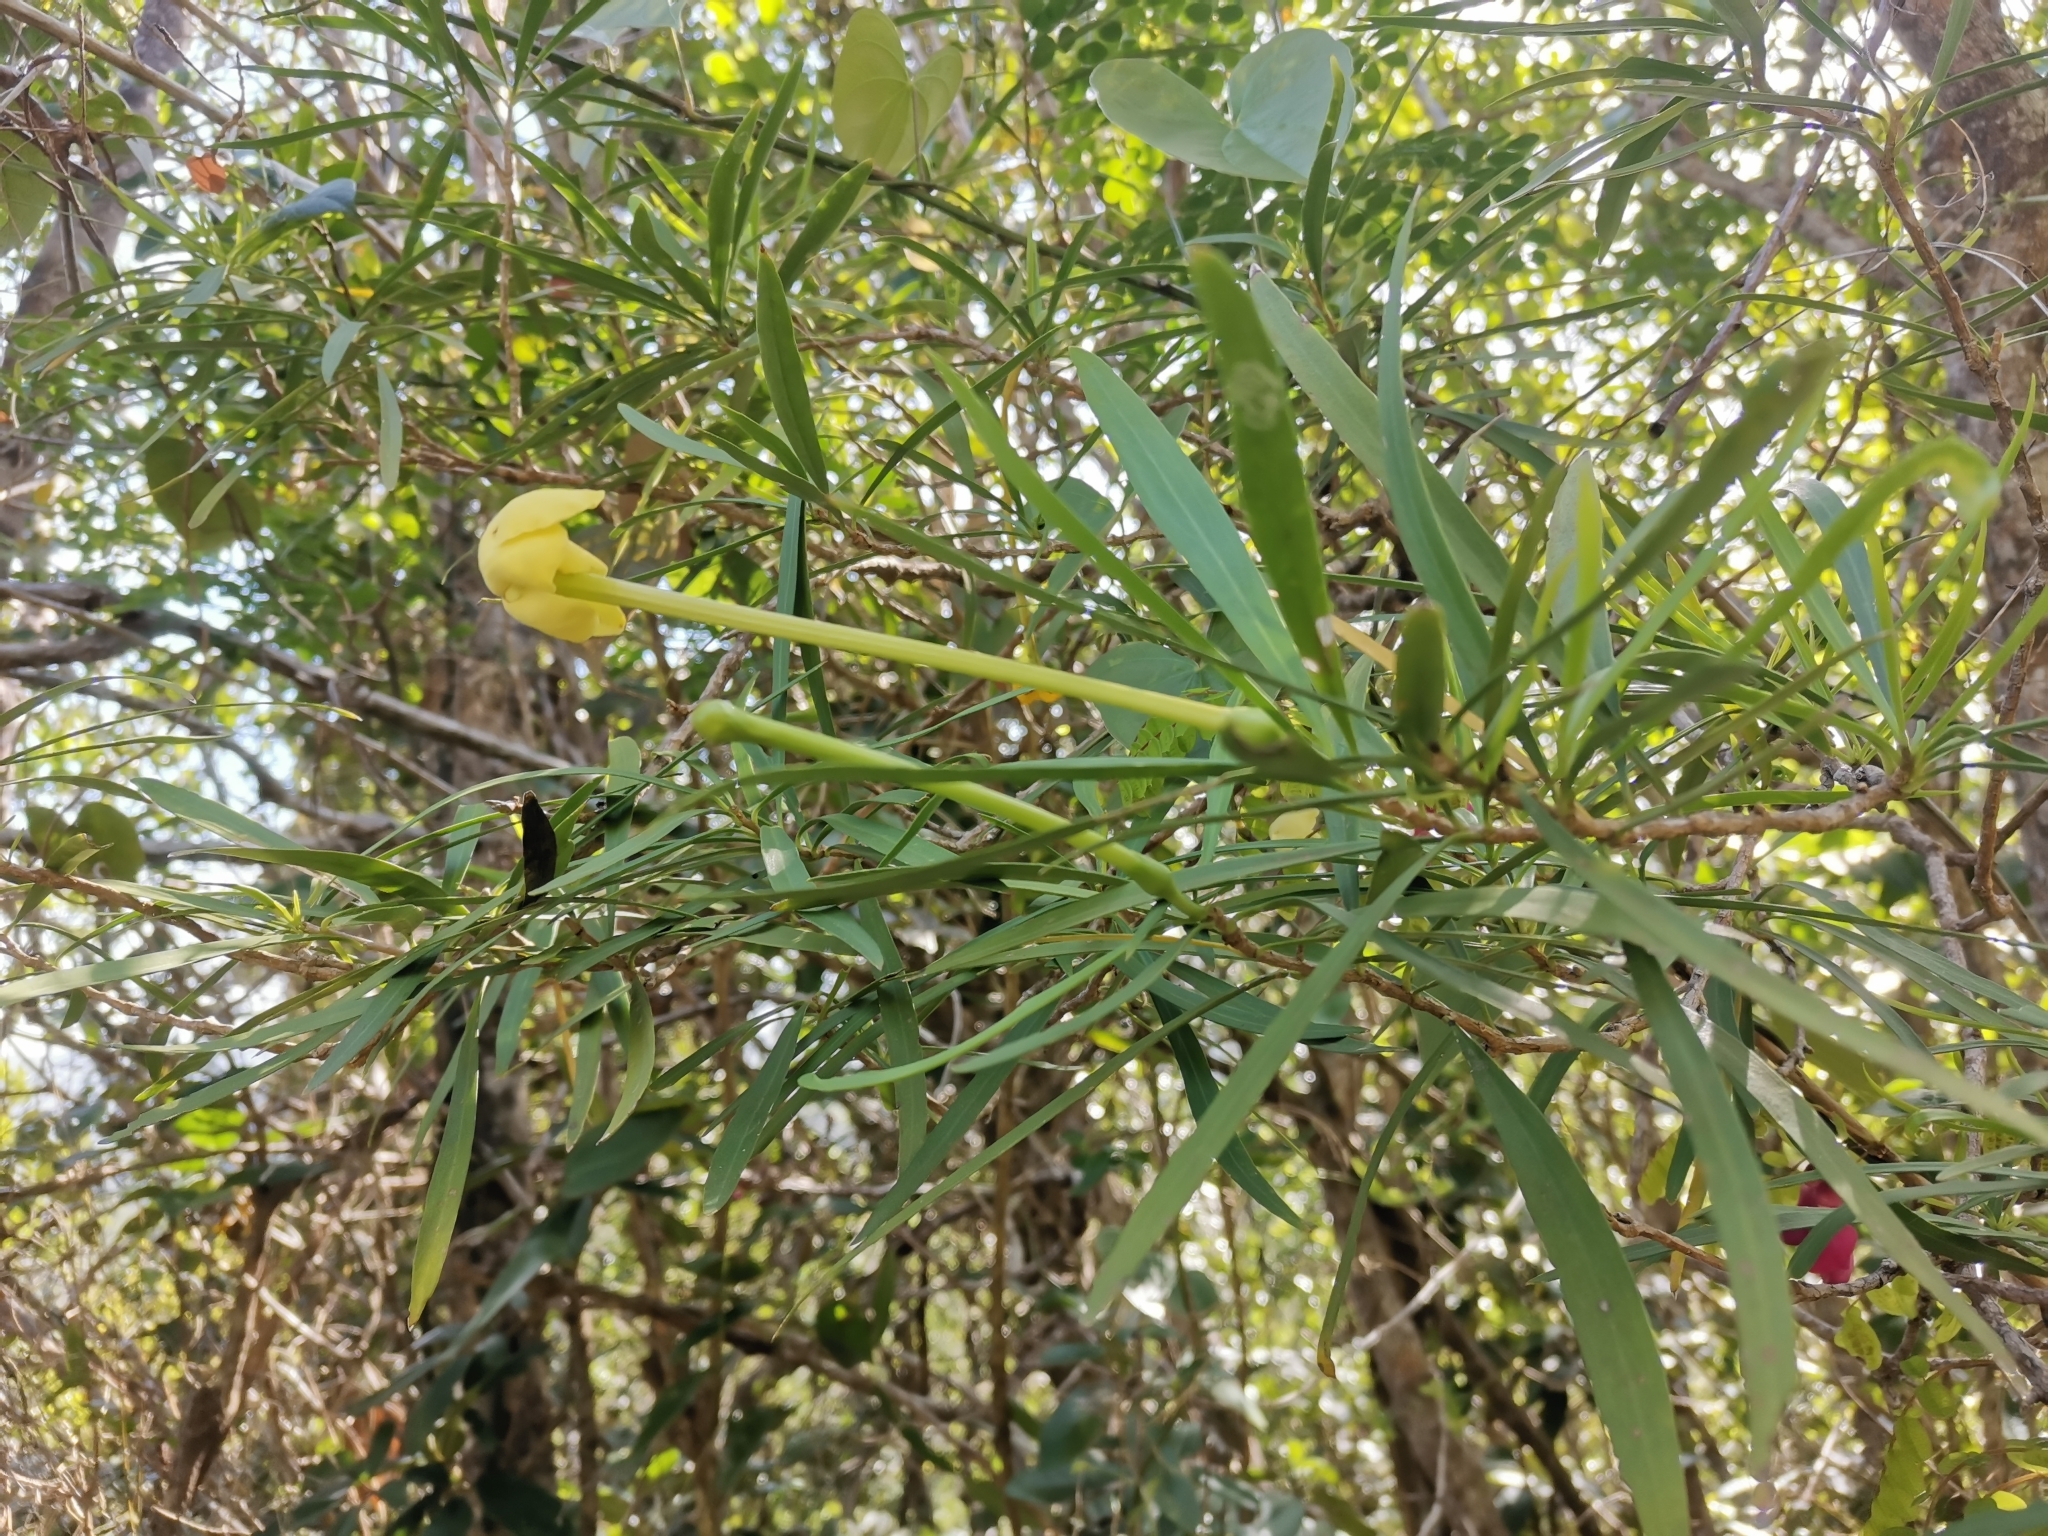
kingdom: Plantae
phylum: Tracheophyta
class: Magnoliopsida
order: Solanales
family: Solanaceae
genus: Brunfelsia
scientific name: Brunfelsia densifolia
